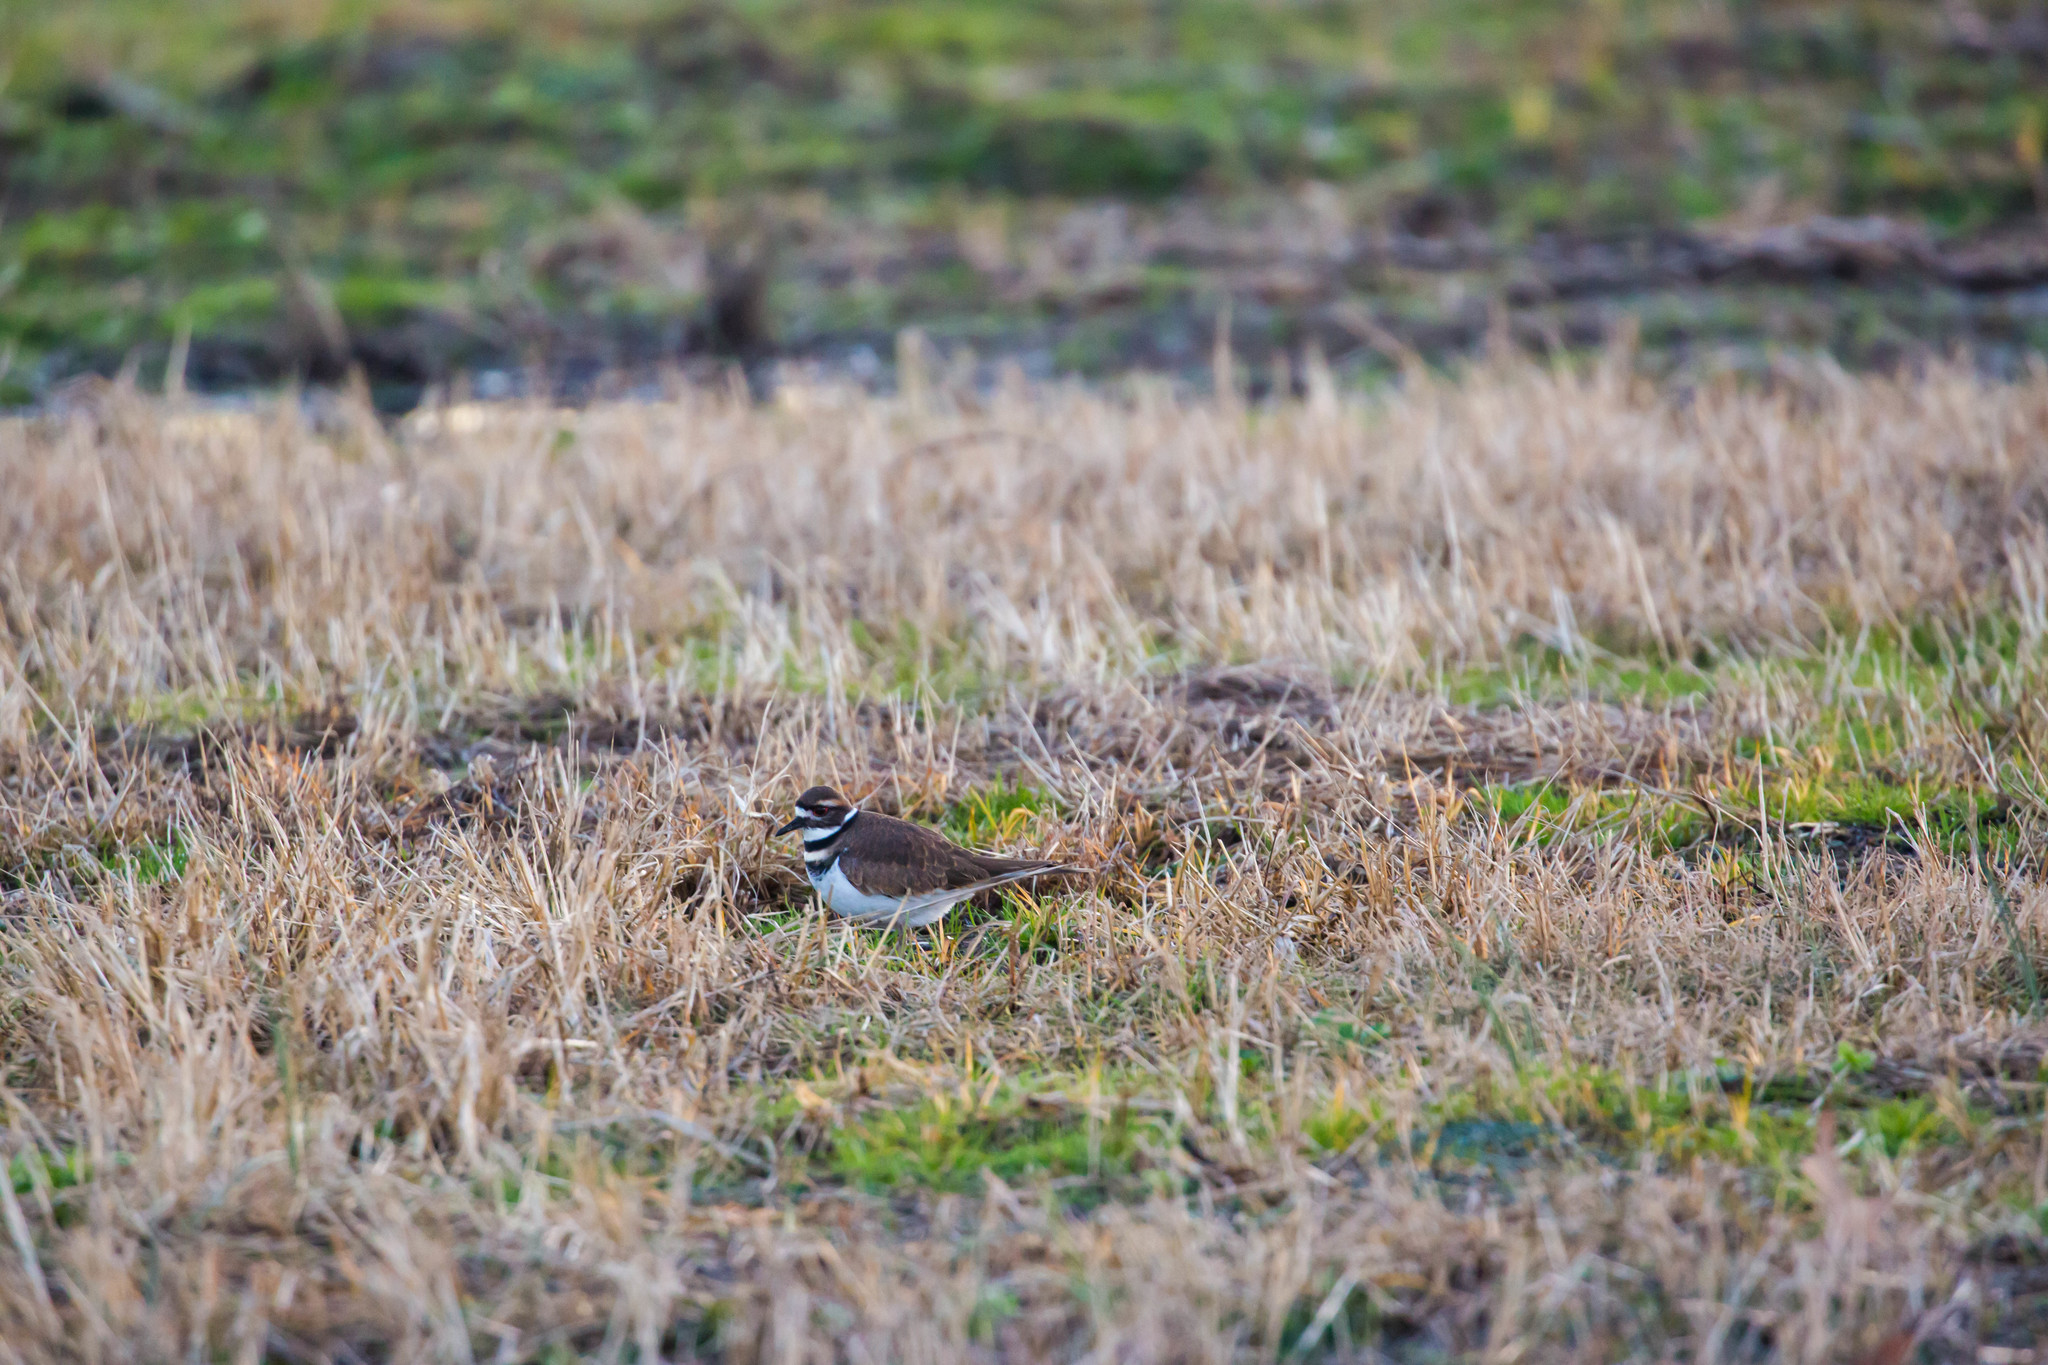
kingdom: Animalia
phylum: Chordata
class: Aves
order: Charadriiformes
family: Charadriidae
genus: Charadrius
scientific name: Charadrius vociferus
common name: Killdeer
